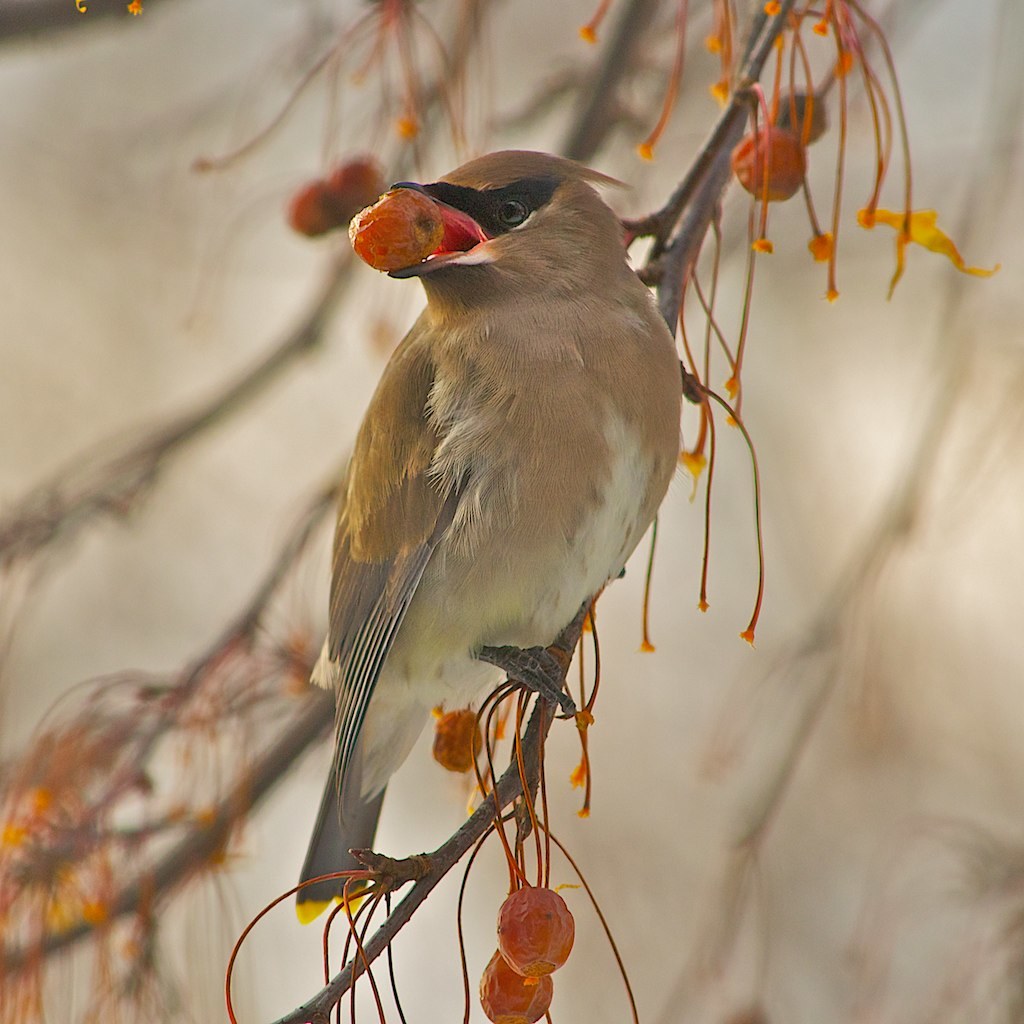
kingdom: Animalia
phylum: Chordata
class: Aves
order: Passeriformes
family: Bombycillidae
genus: Bombycilla
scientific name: Bombycilla cedrorum
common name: Cedar waxwing
